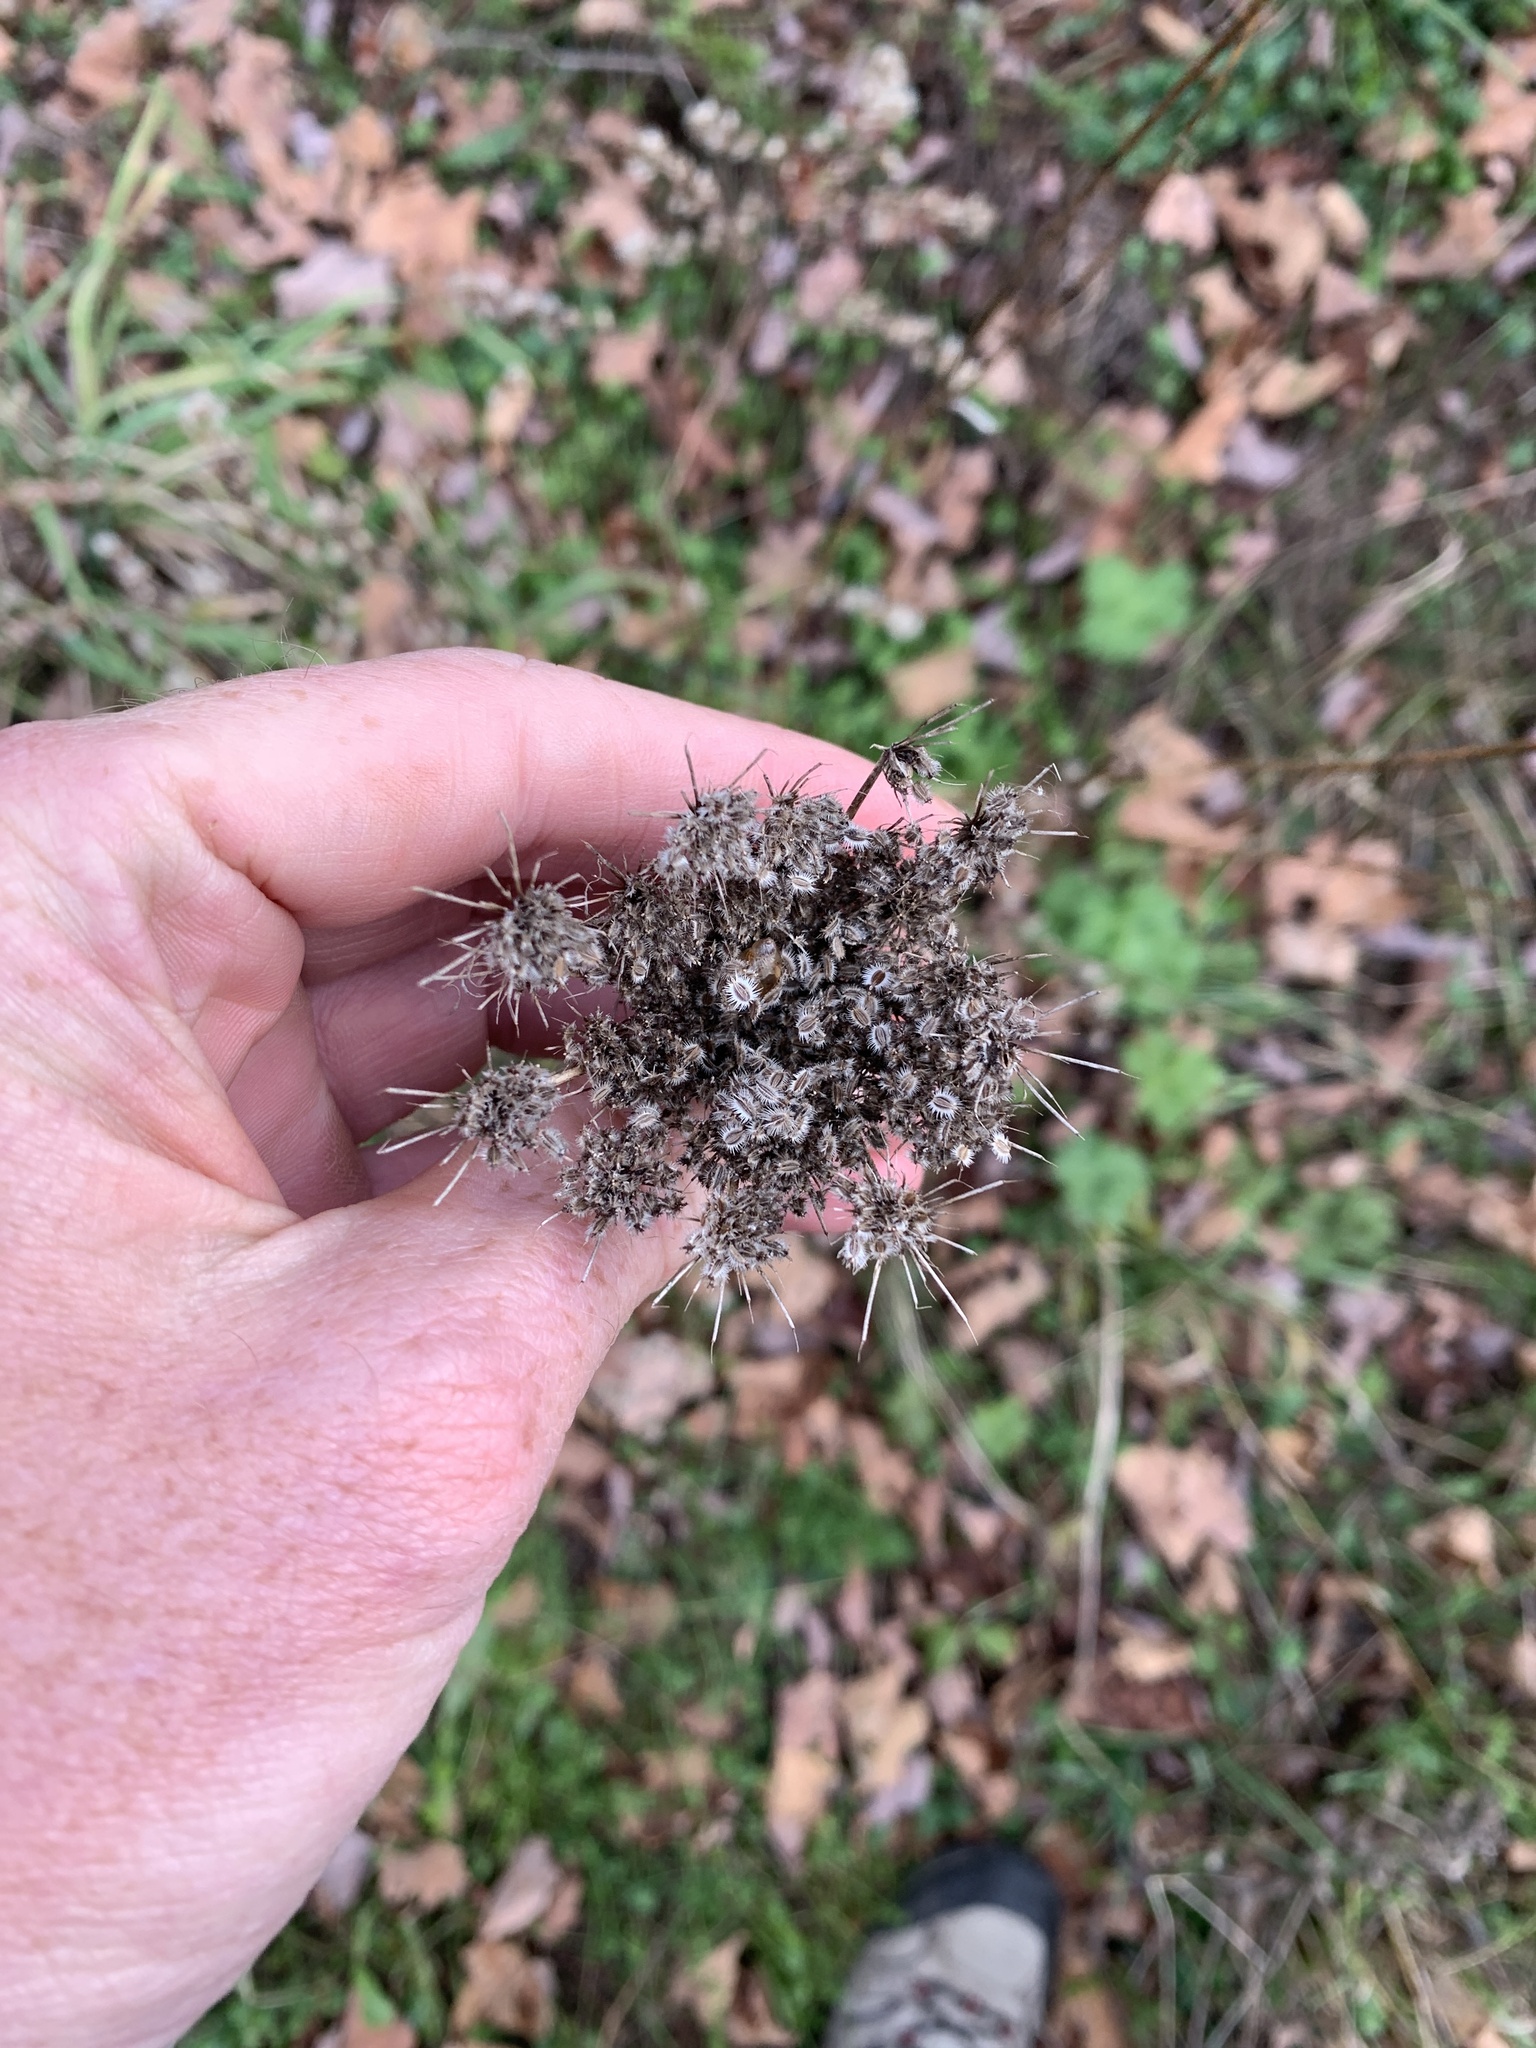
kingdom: Plantae
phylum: Tracheophyta
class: Magnoliopsida
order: Apiales
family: Apiaceae
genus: Daucus
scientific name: Daucus carota
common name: Wild carrot
